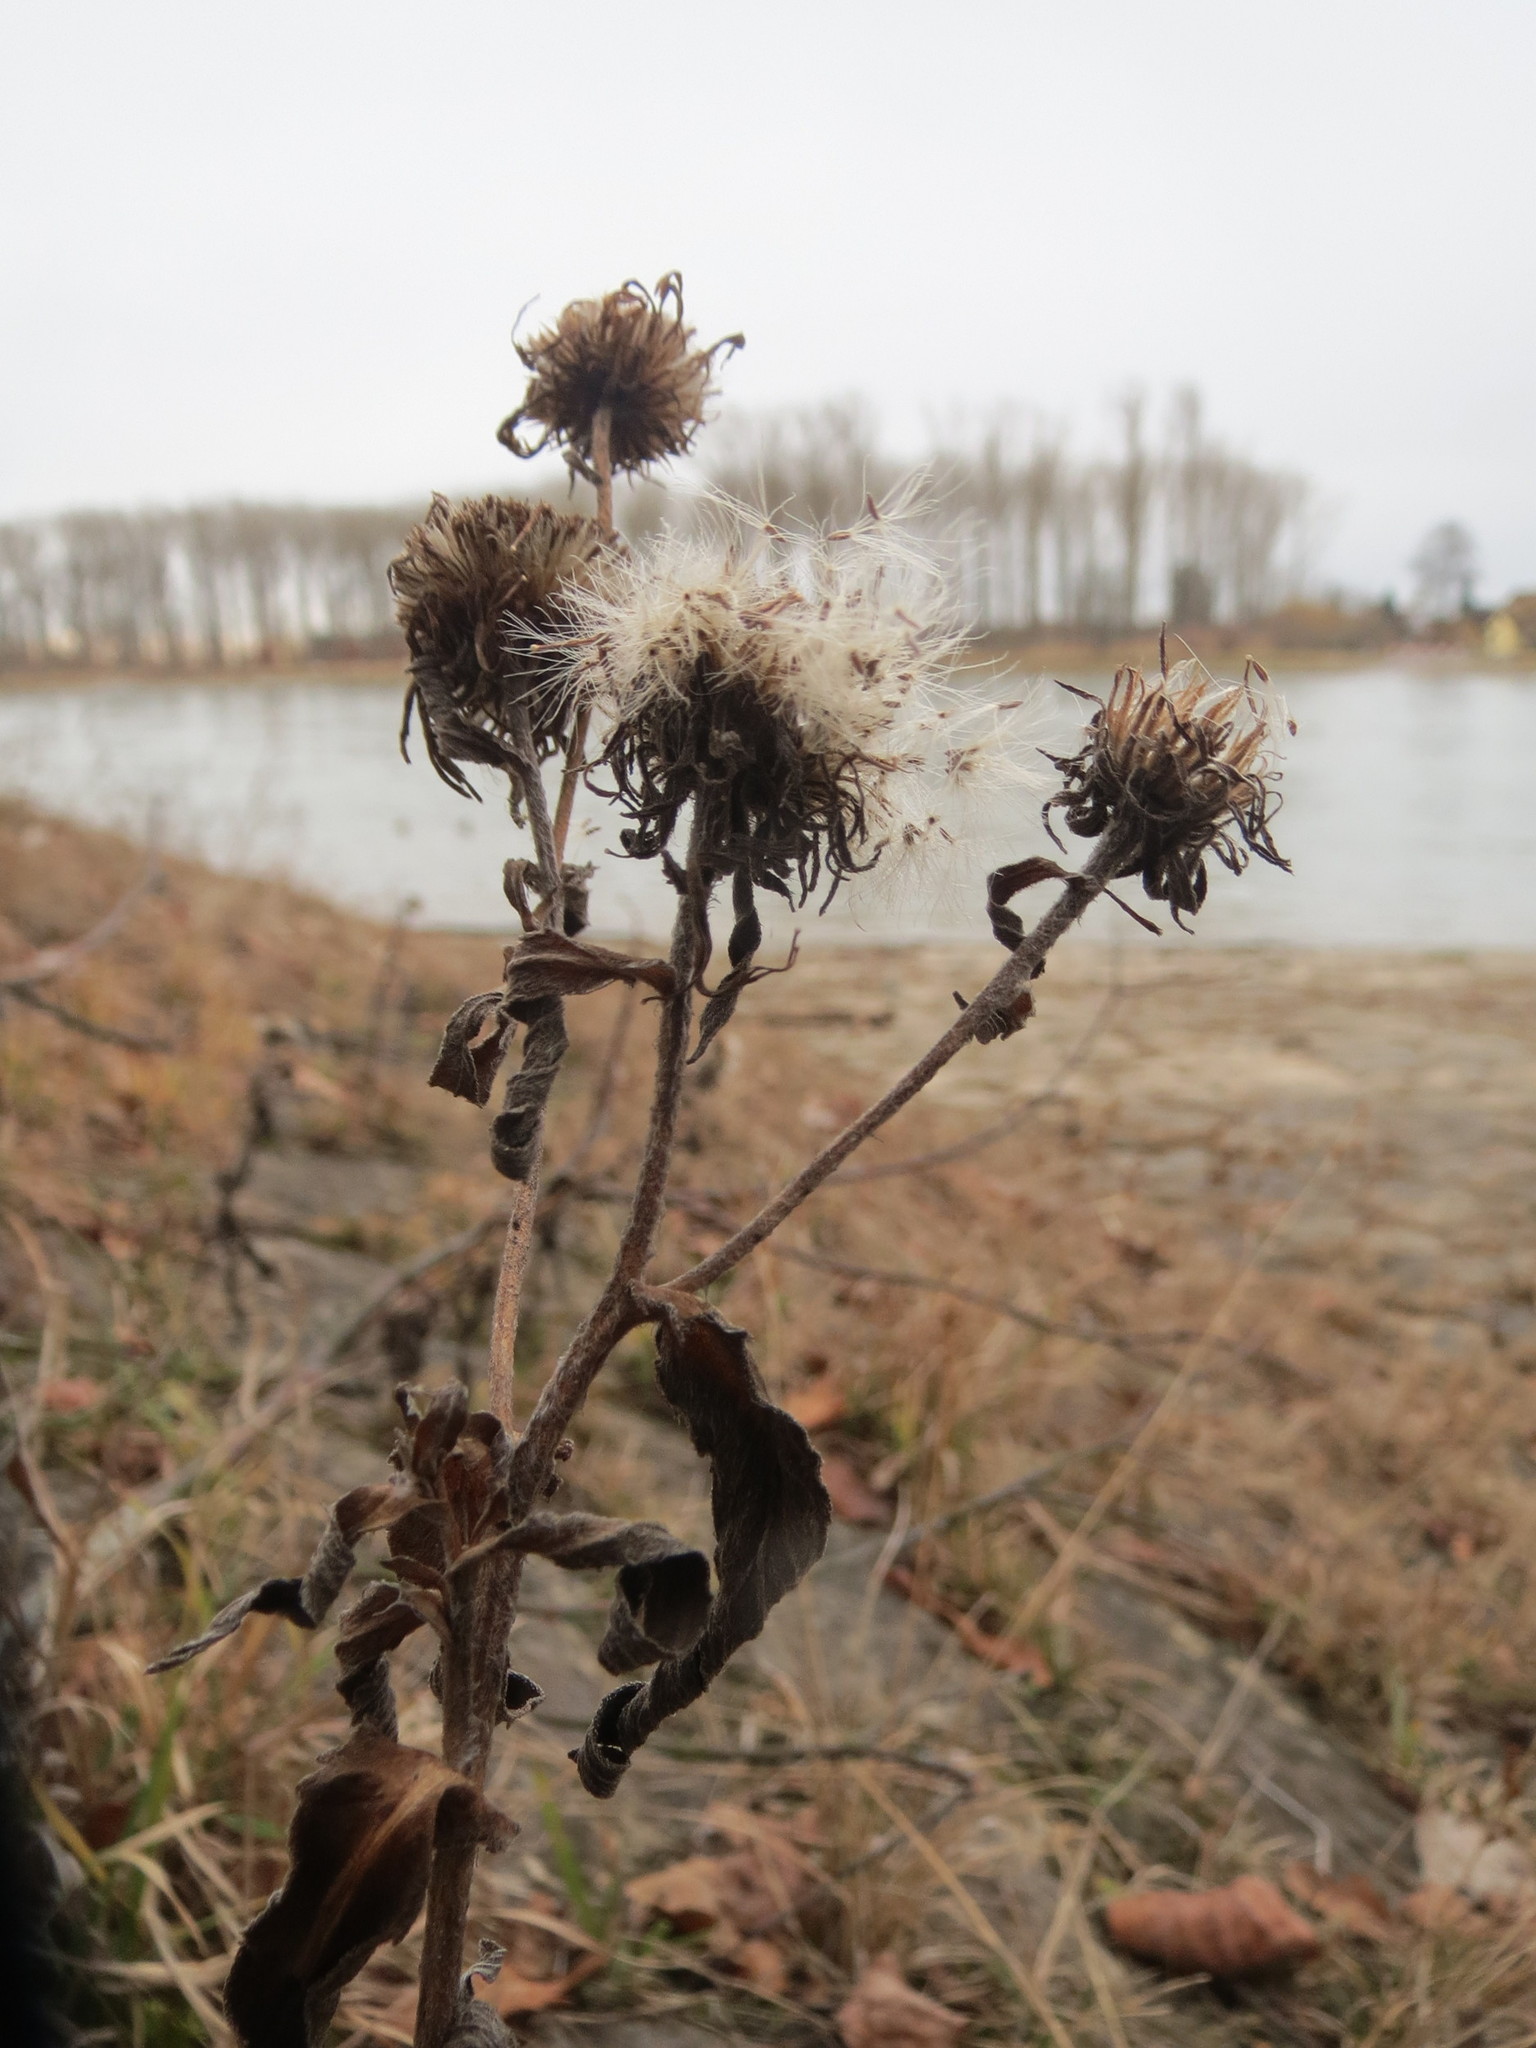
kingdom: Plantae
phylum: Tracheophyta
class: Magnoliopsida
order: Asterales
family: Asteraceae
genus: Pentanema
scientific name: Pentanema britannicum
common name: British elecampane
